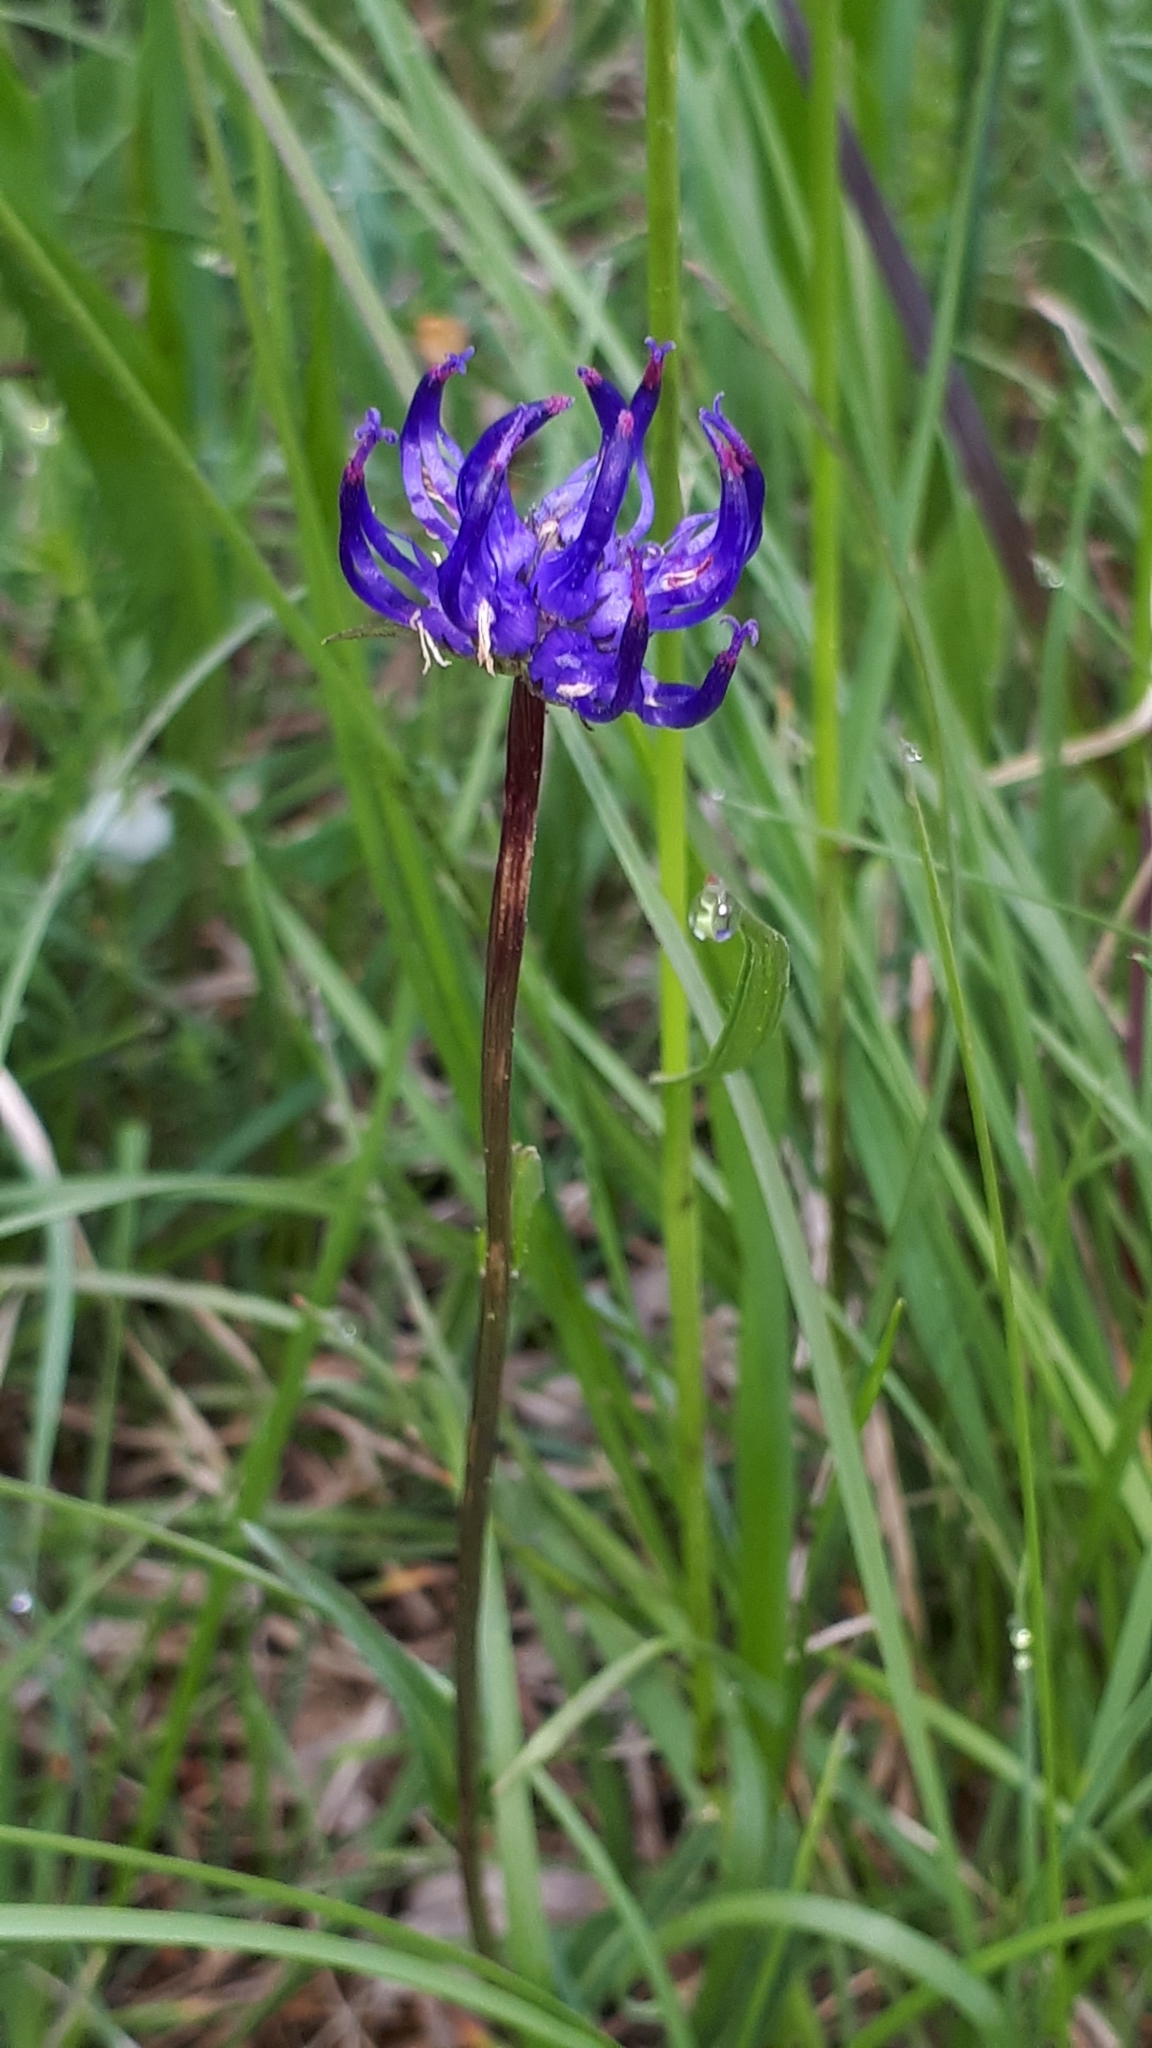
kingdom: Plantae
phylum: Tracheophyta
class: Magnoliopsida
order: Asterales
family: Campanulaceae
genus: Phyteuma
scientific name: Phyteuma orbiculare
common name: Round-headed rampion
